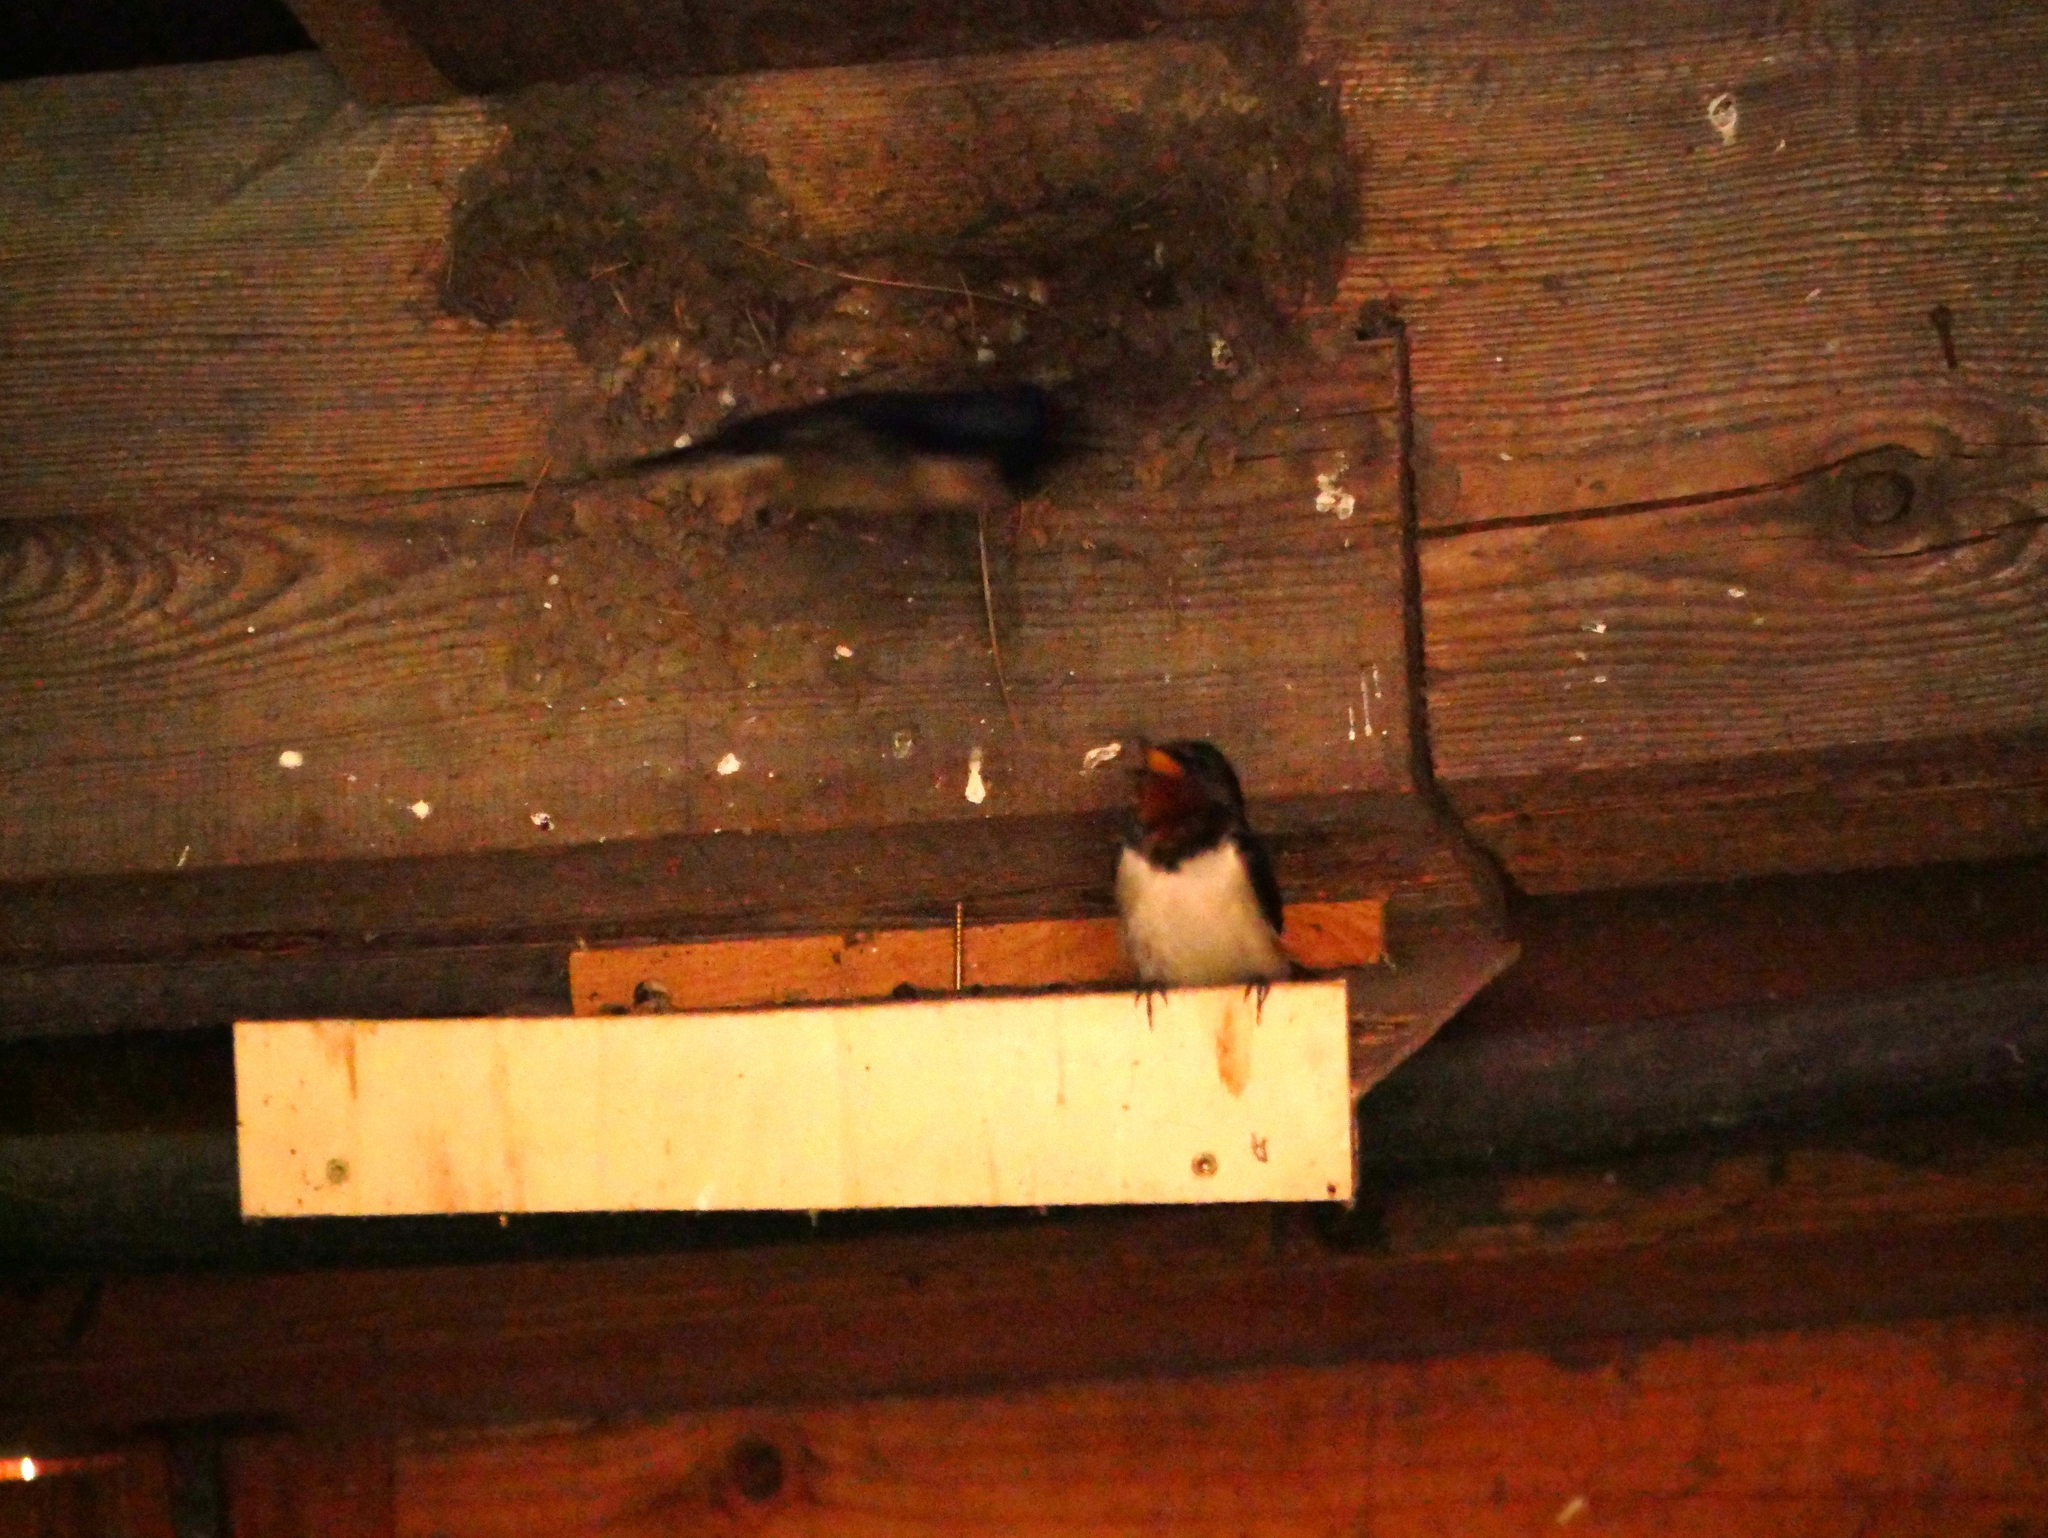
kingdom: Animalia
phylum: Chordata
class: Aves
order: Passeriformes
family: Hirundinidae
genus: Hirundo
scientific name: Hirundo rustica
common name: Barn swallow
